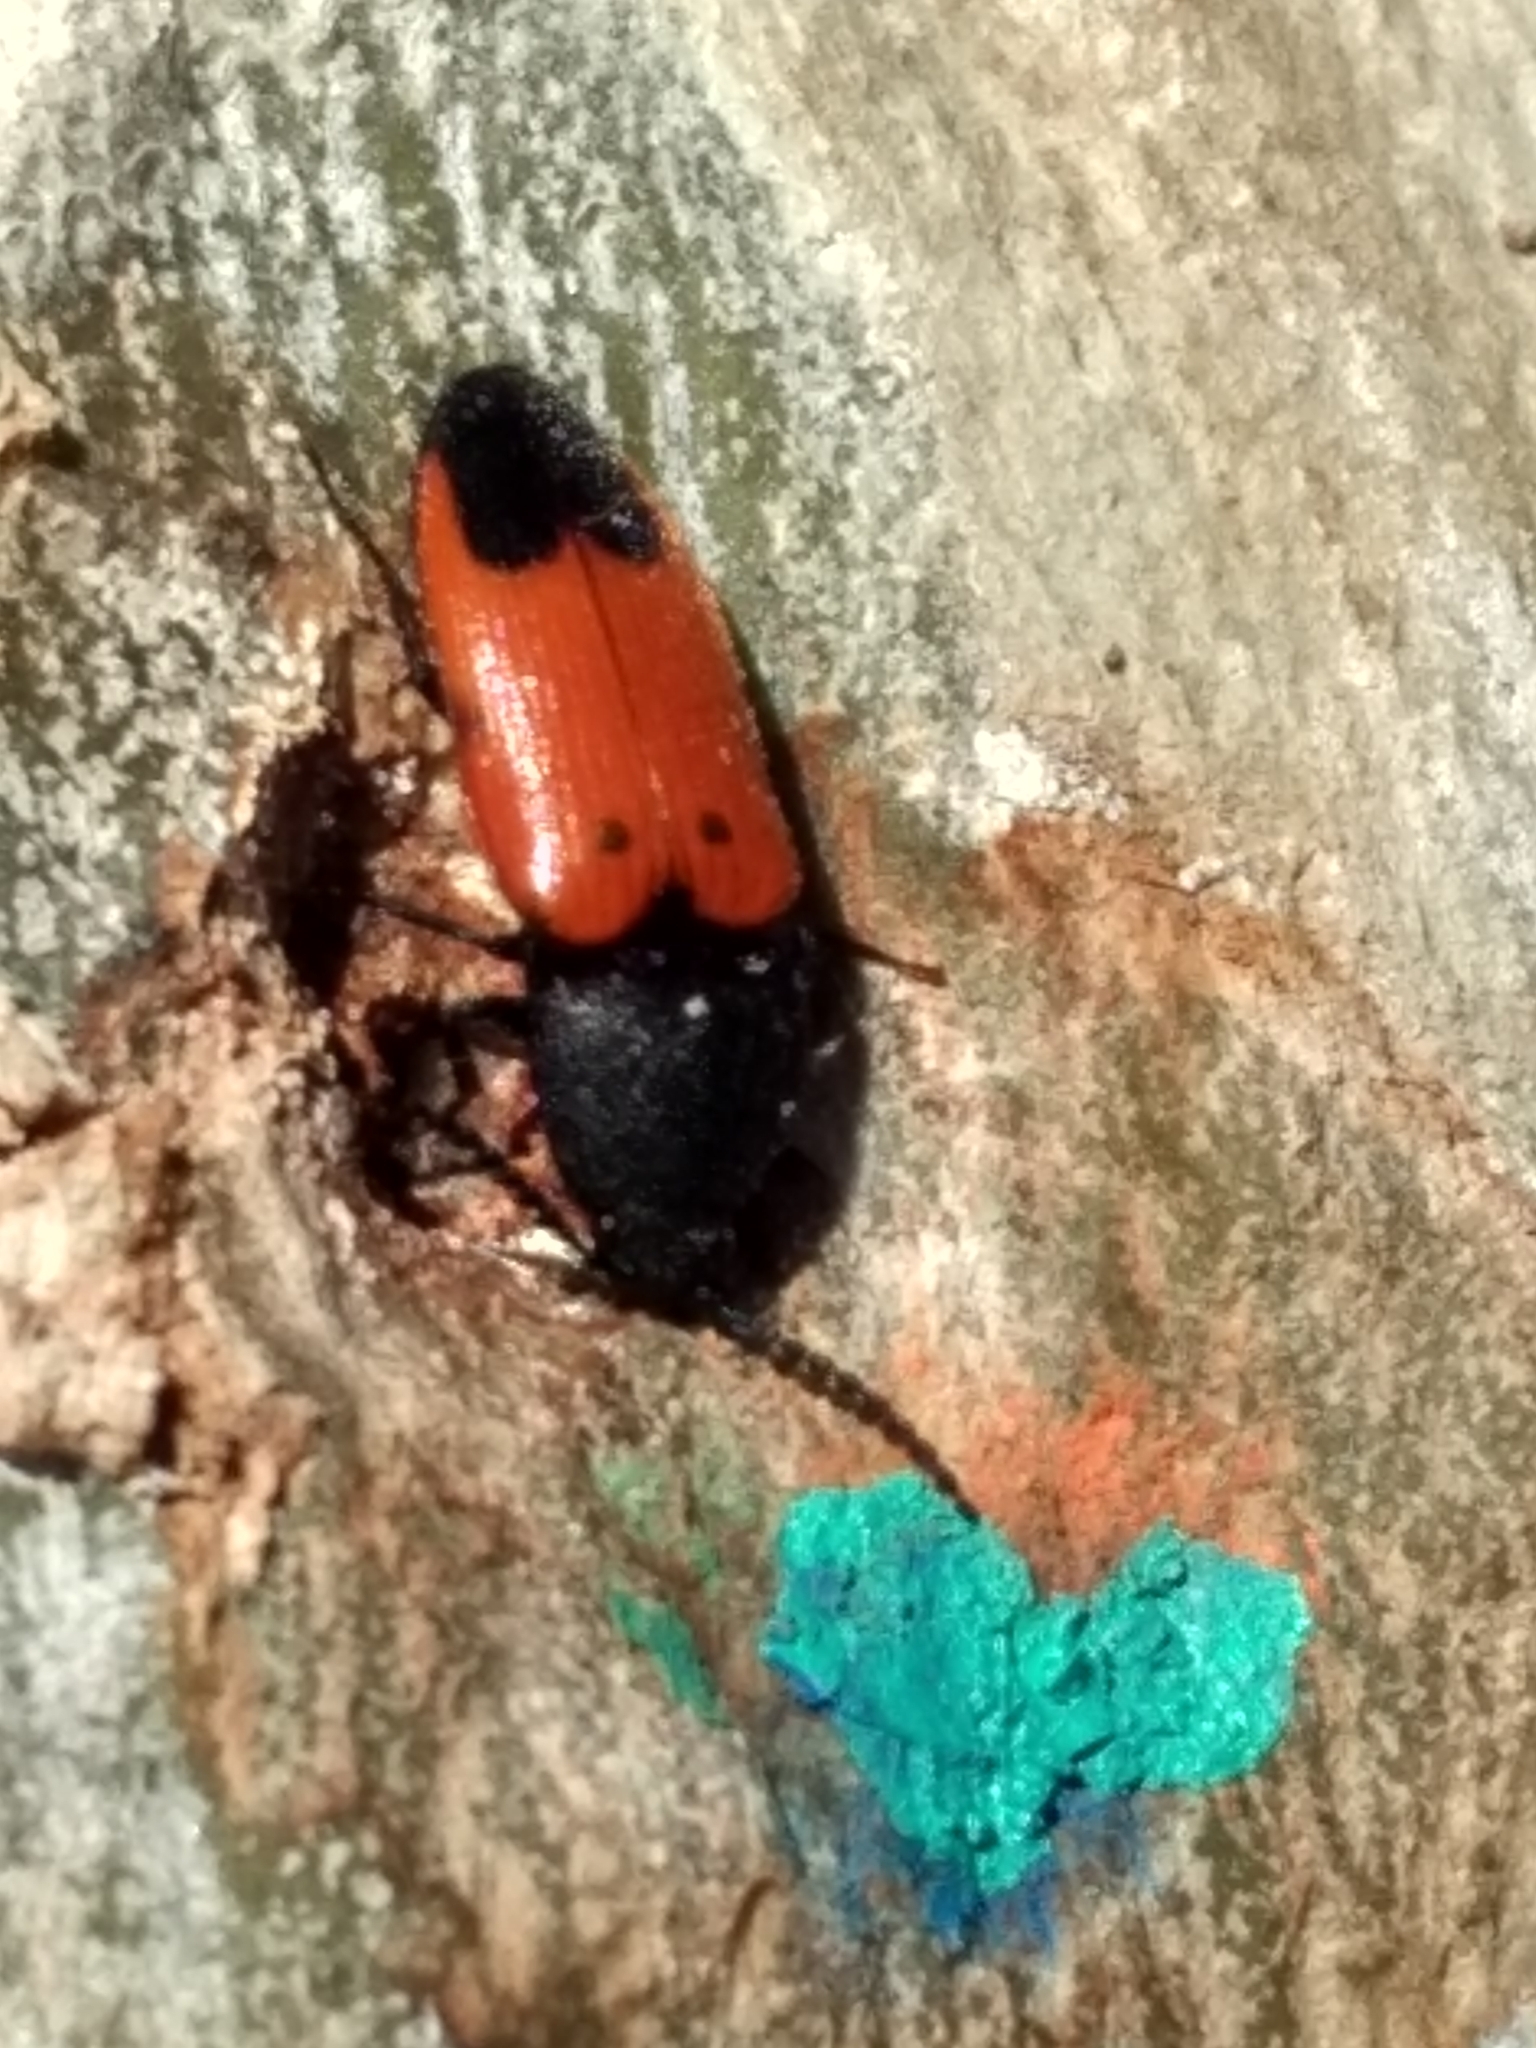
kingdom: Animalia
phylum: Arthropoda
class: Insecta
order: Coleoptera
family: Elateridae
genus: Ampedus
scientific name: Ampedus
